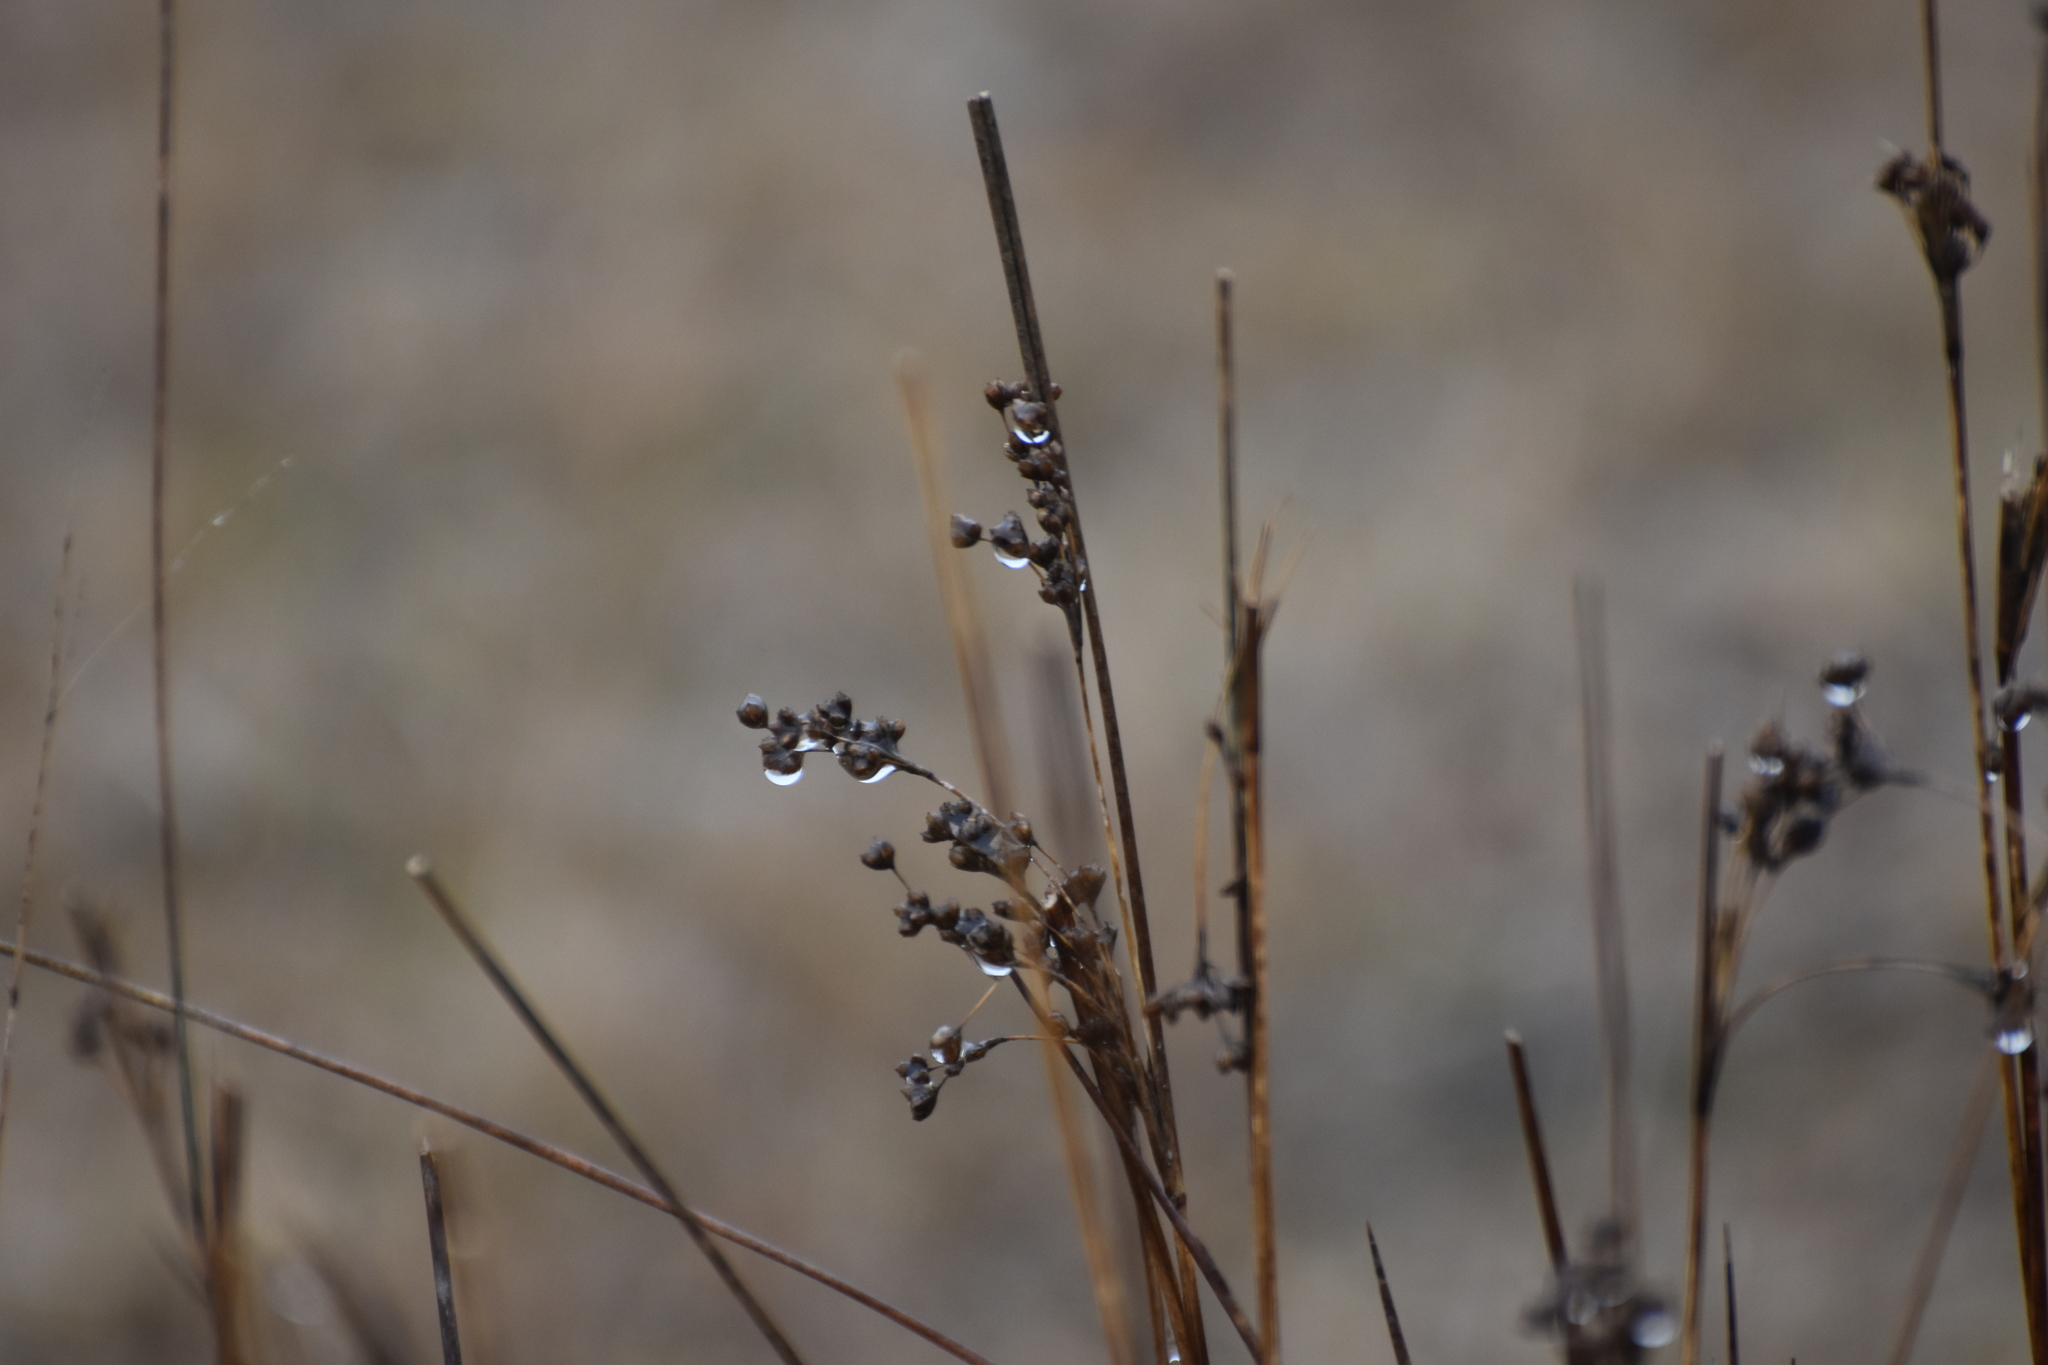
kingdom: Plantae
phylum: Tracheophyta
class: Liliopsida
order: Poales
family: Juncaceae
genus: Juncus
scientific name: Juncus compressus
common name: Round-fruited rush
